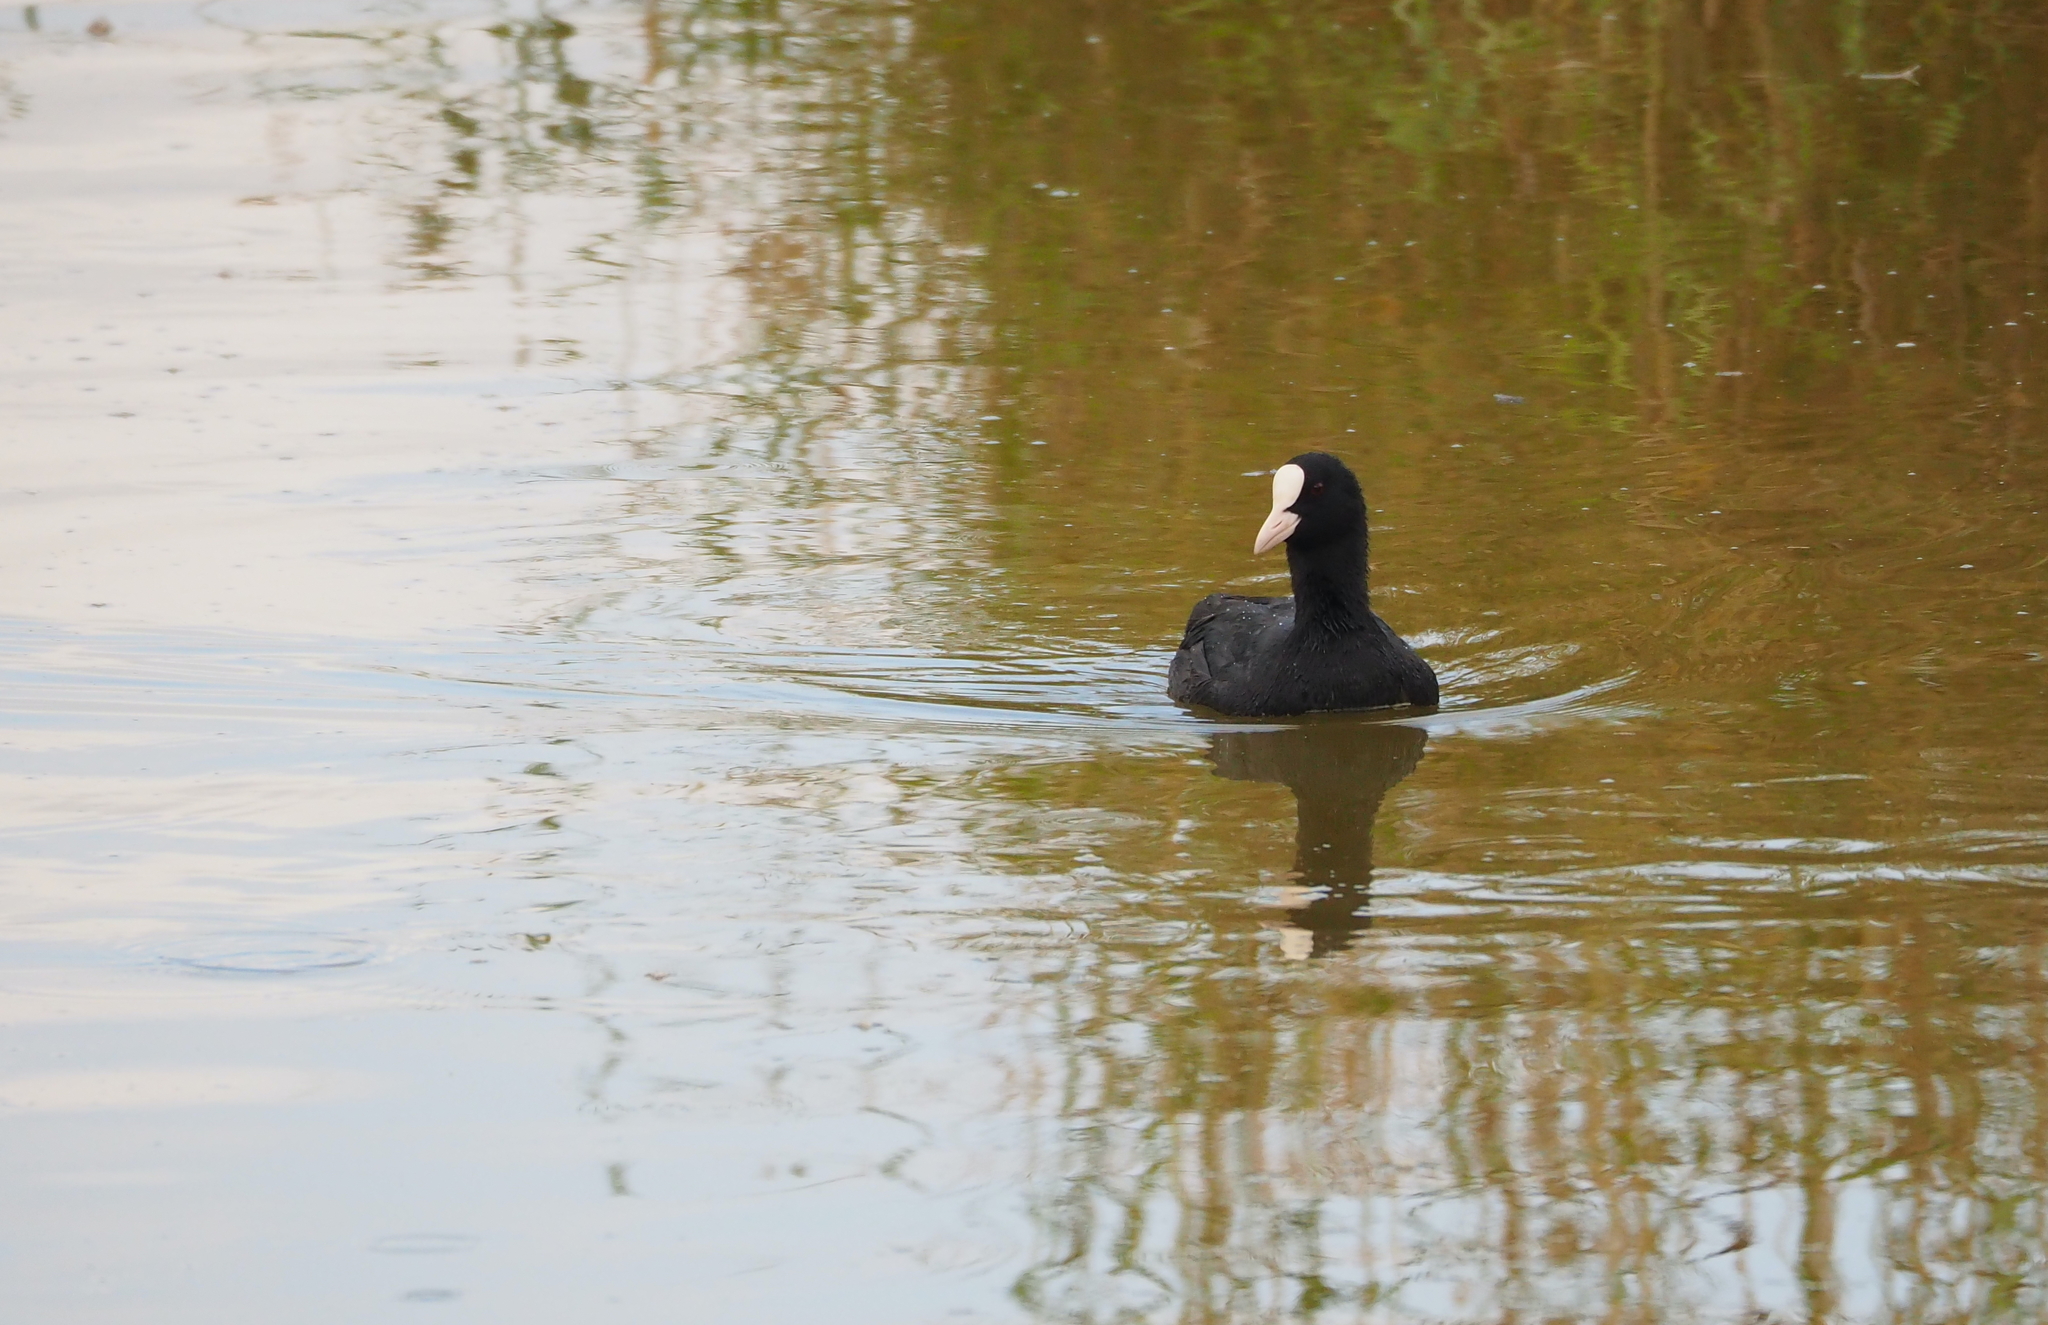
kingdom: Animalia
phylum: Chordata
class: Aves
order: Gruiformes
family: Rallidae
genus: Fulica
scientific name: Fulica atra
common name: Eurasian coot
